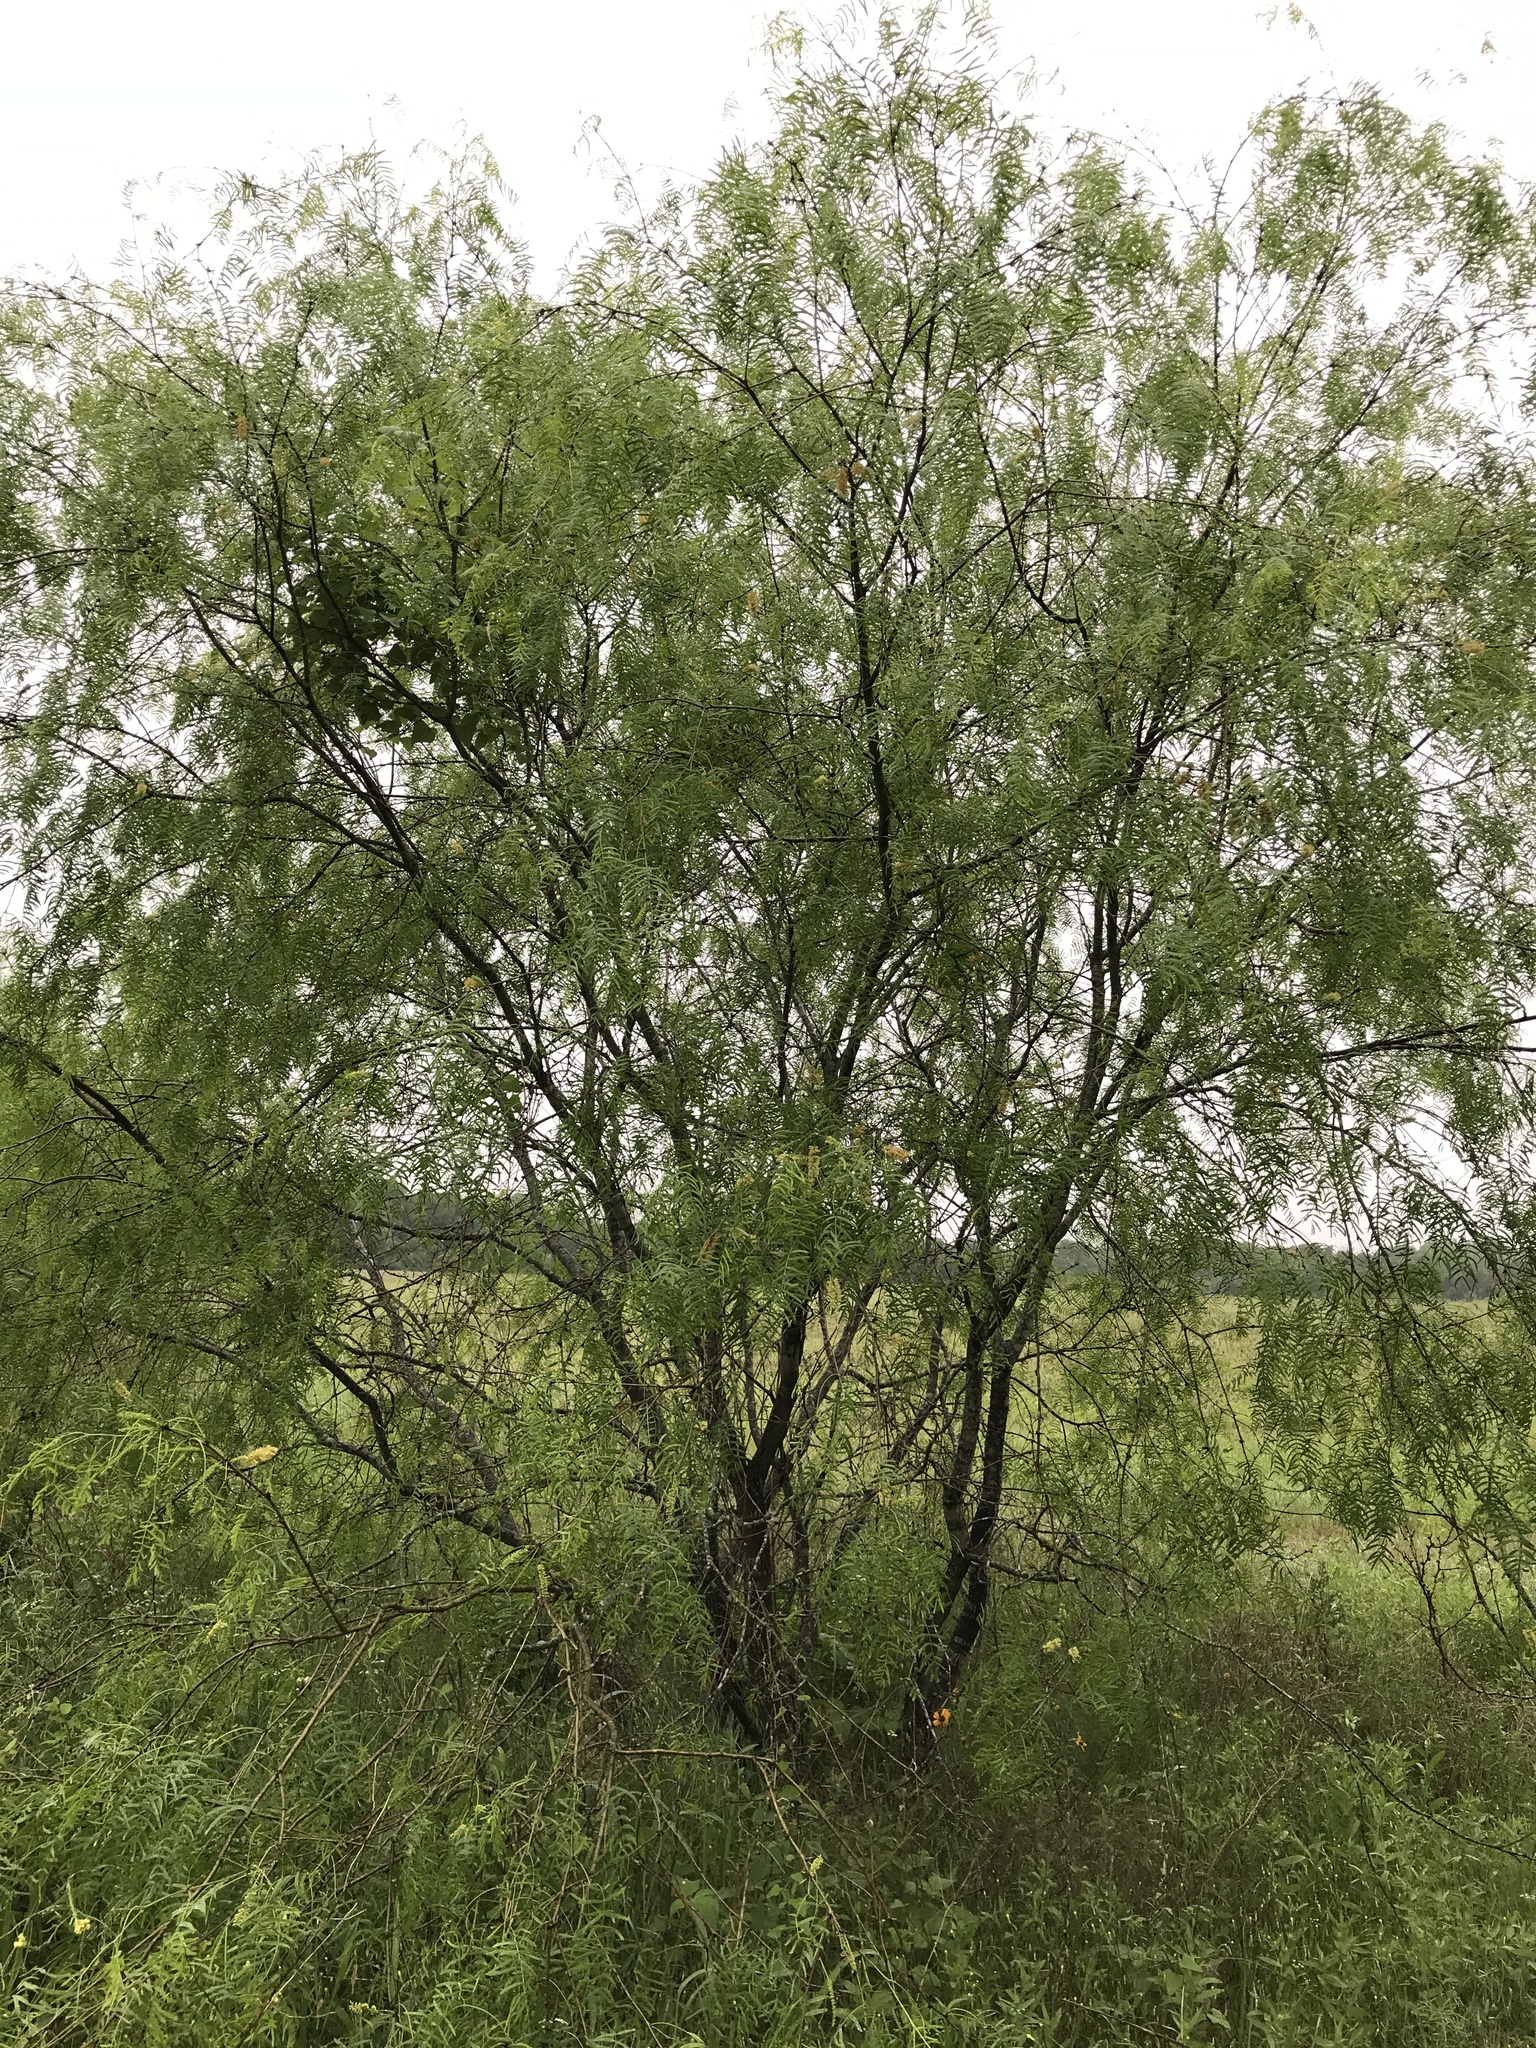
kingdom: Plantae
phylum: Tracheophyta
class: Magnoliopsida
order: Fabales
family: Fabaceae
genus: Prosopis
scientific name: Prosopis glandulosa
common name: Honey mesquite
